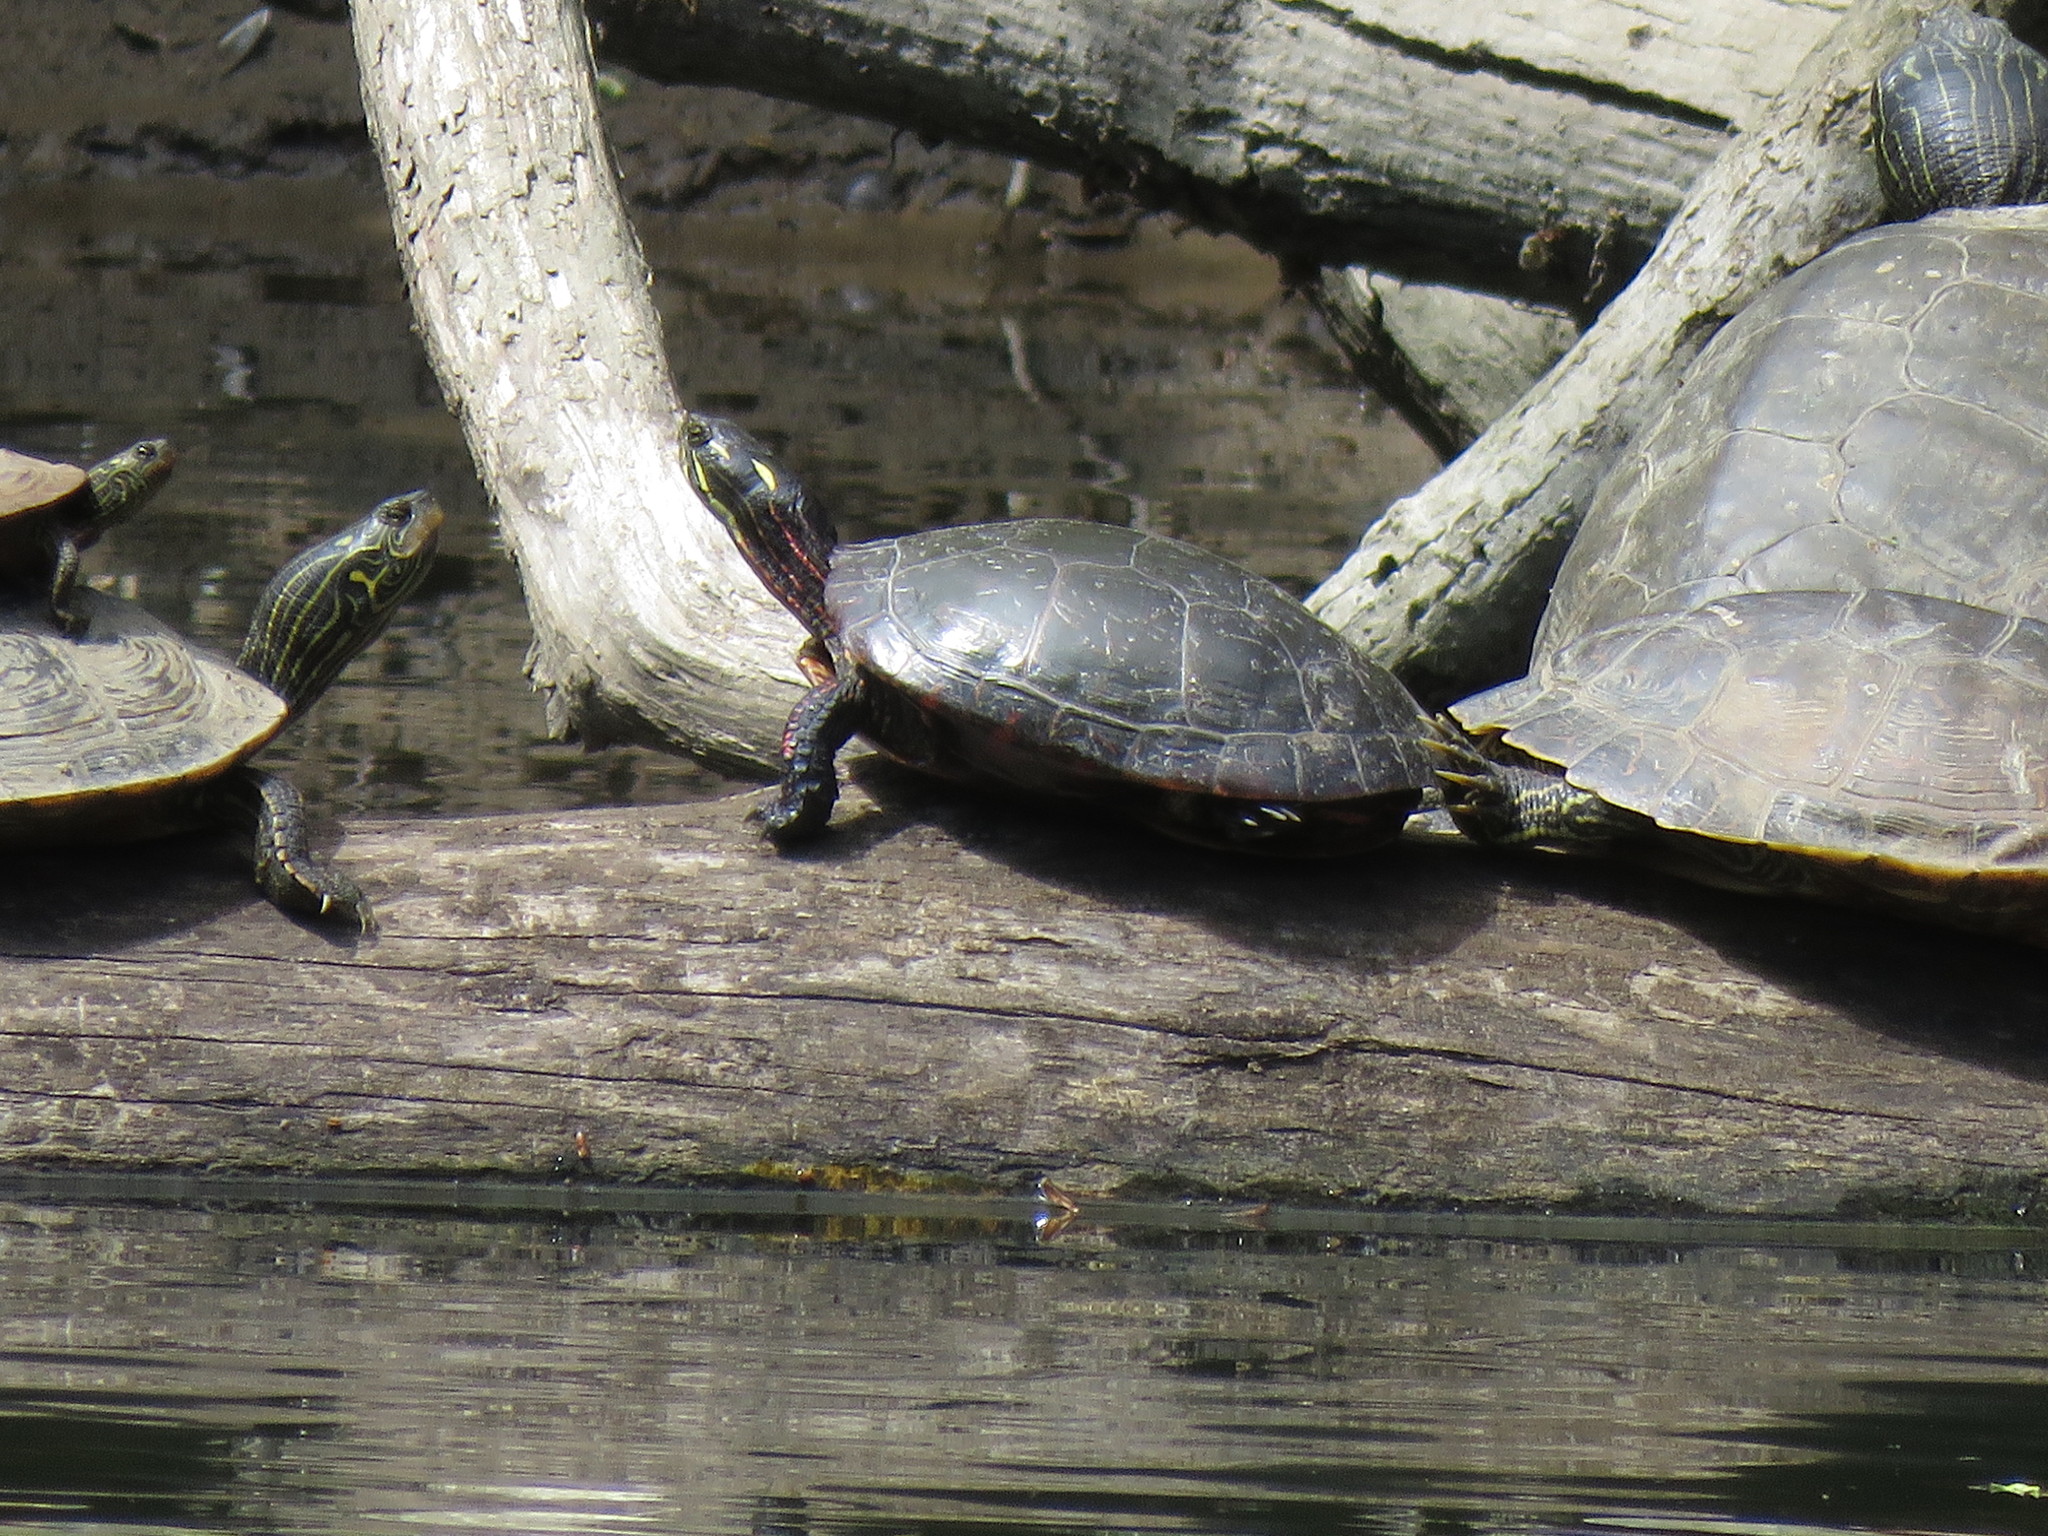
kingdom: Animalia
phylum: Chordata
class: Testudines
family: Emydidae
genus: Chrysemys
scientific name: Chrysemys picta
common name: Painted turtle
